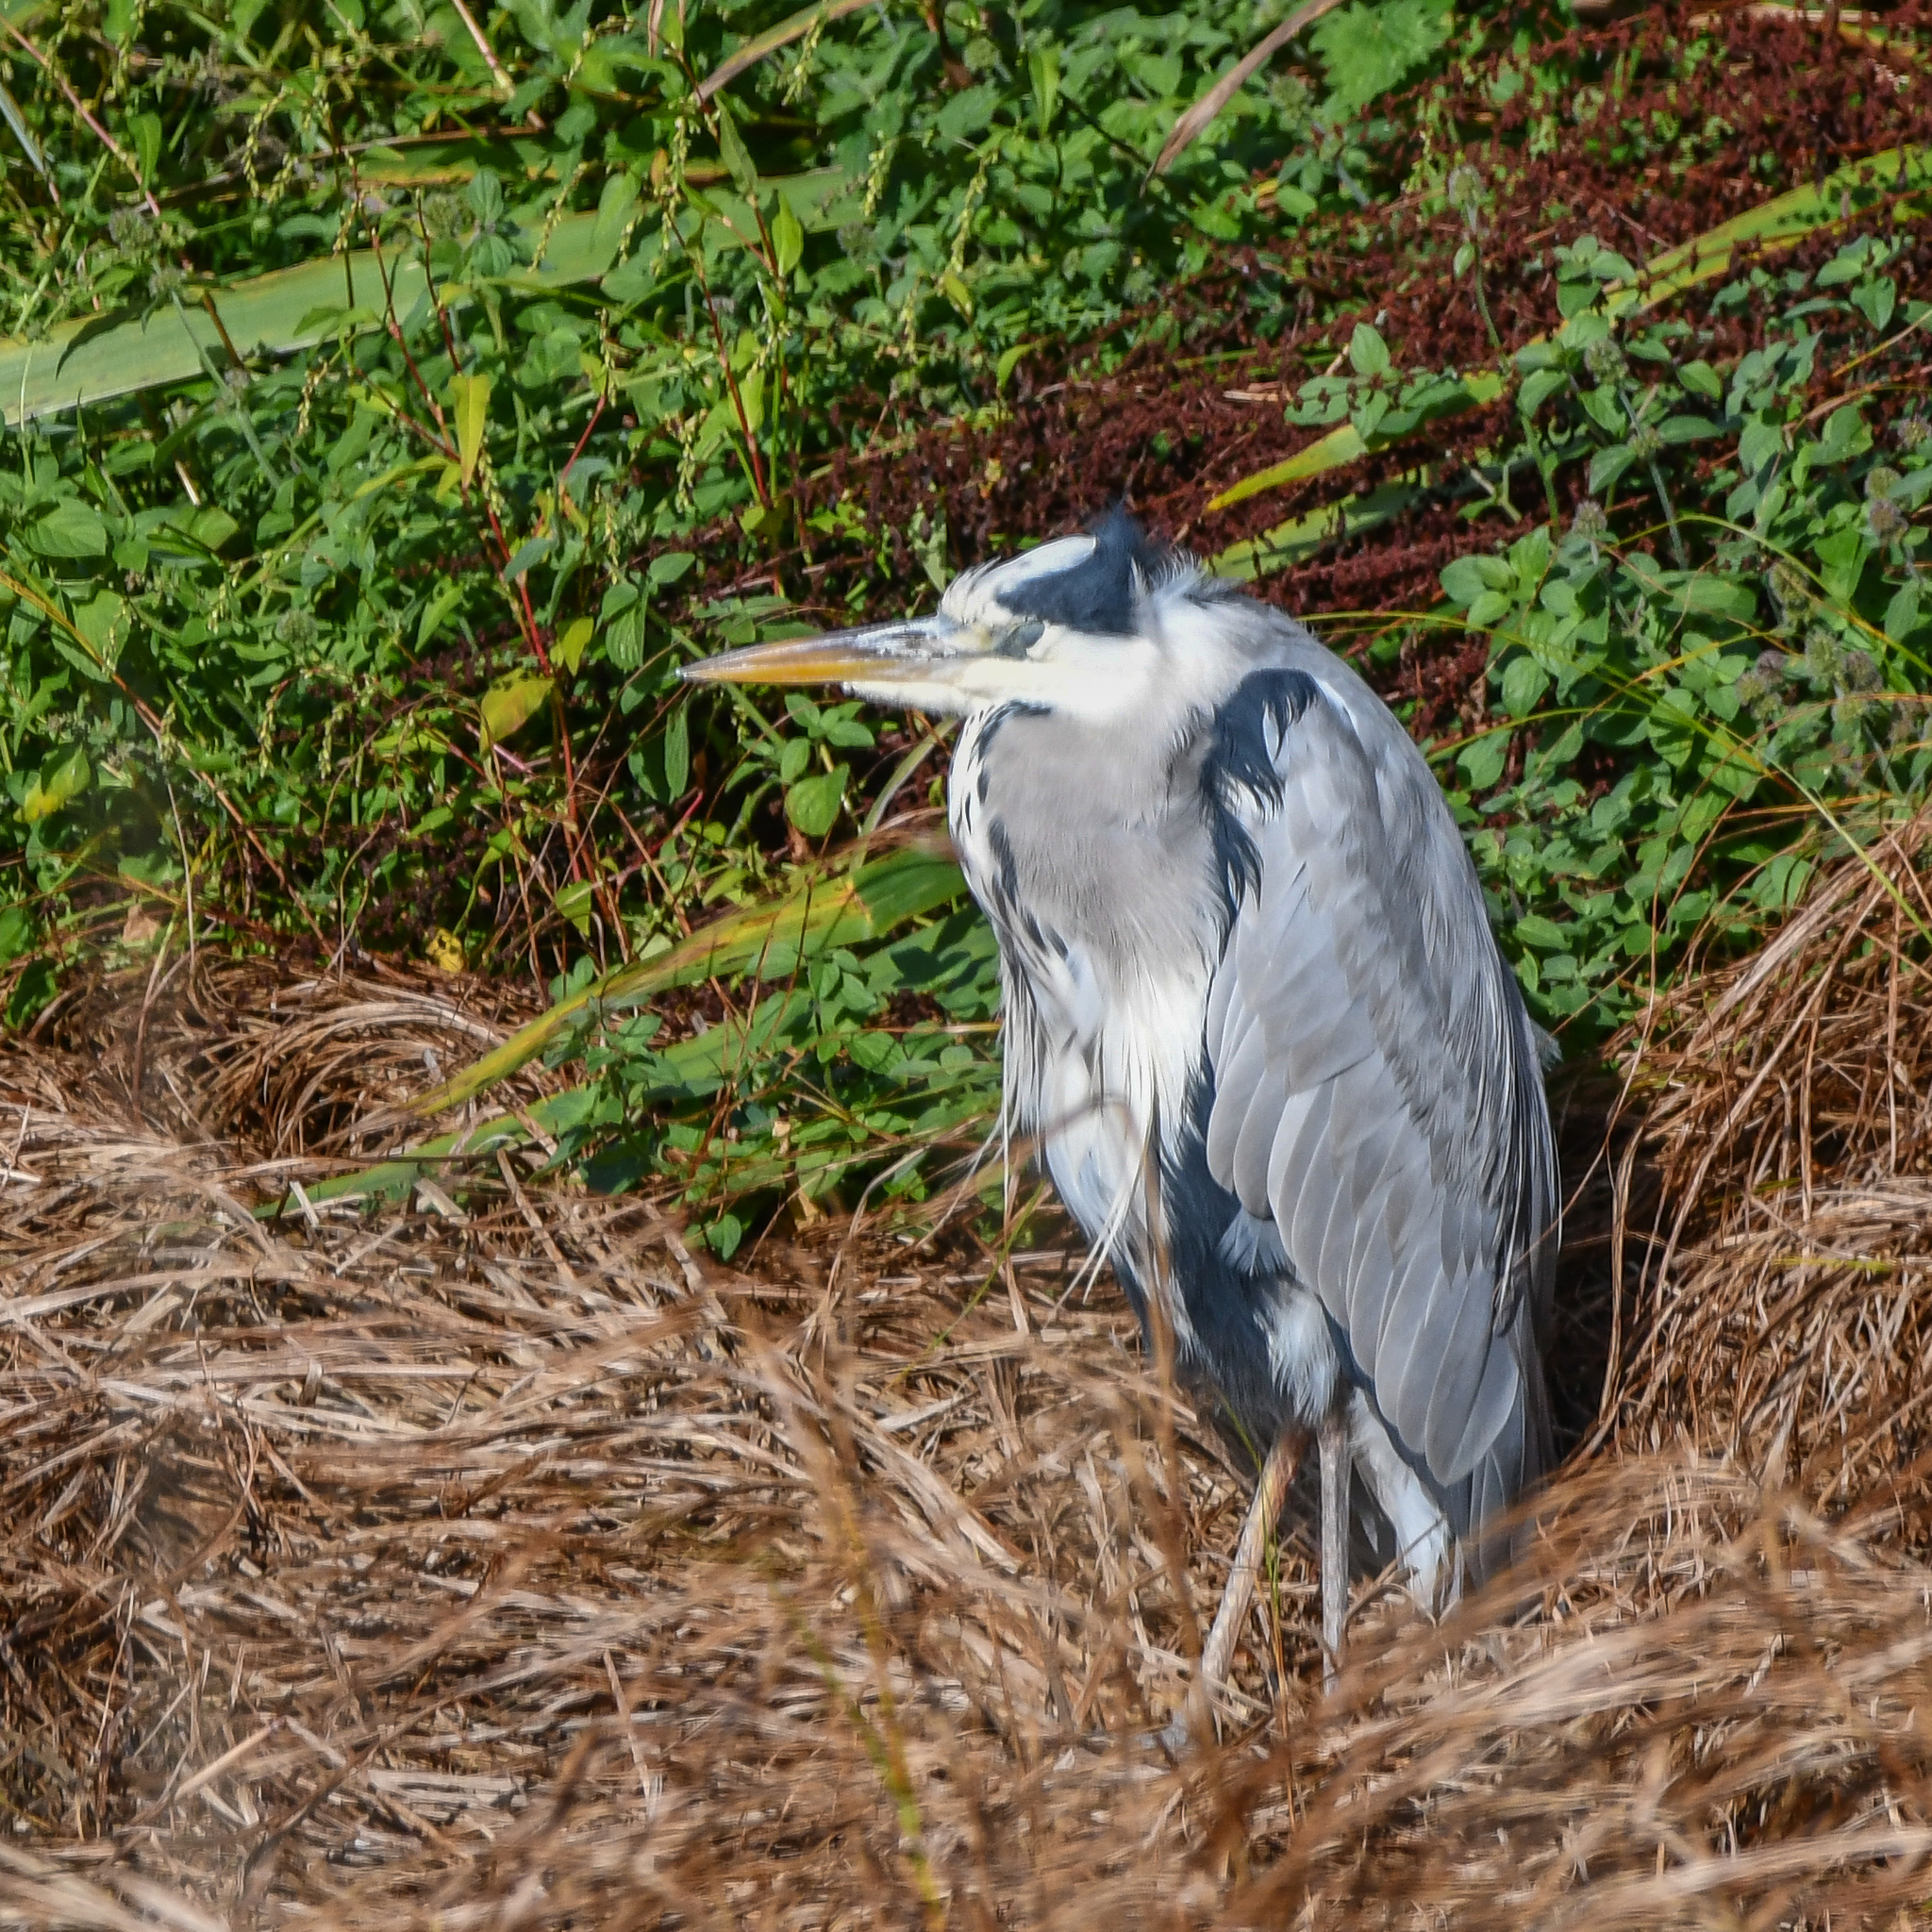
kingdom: Animalia
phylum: Chordata
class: Aves
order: Pelecaniformes
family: Ardeidae
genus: Ardea
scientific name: Ardea cinerea
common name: Grey heron
